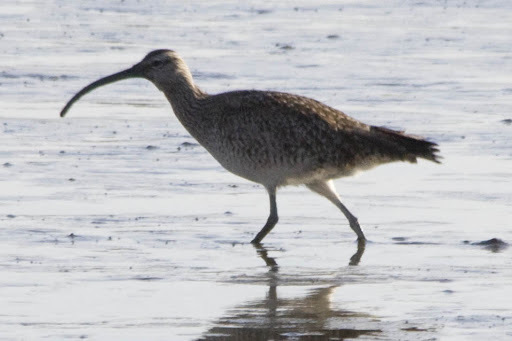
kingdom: Animalia
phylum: Chordata
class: Aves
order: Charadriiformes
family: Scolopacidae
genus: Numenius
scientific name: Numenius phaeopus
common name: Whimbrel
